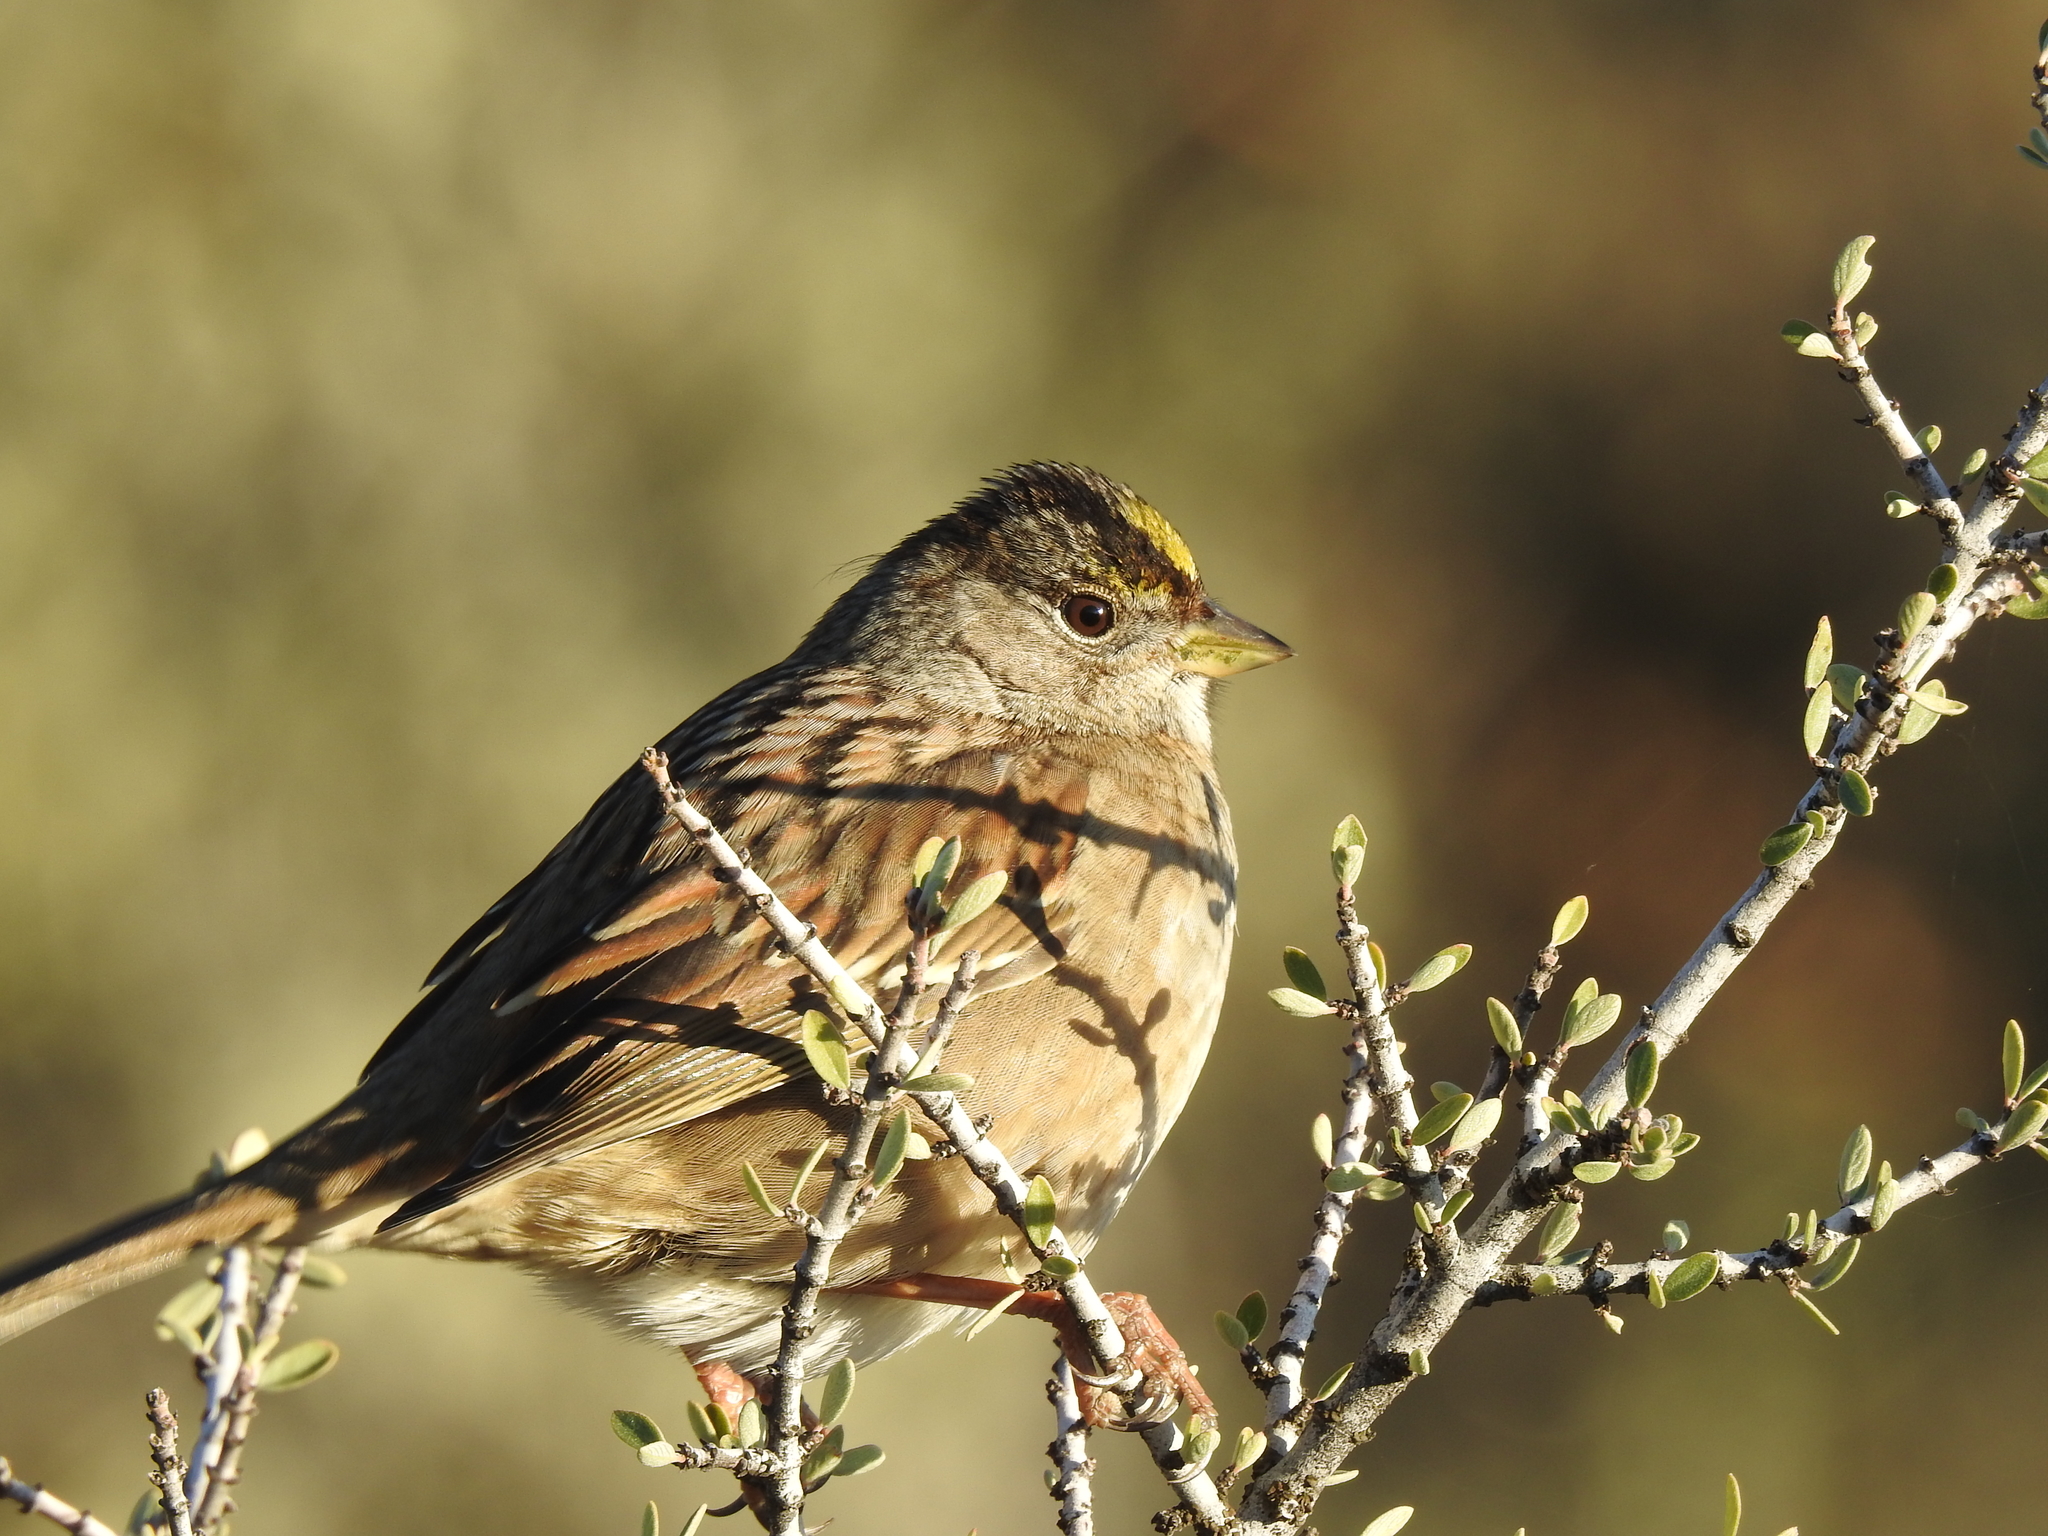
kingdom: Animalia
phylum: Chordata
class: Aves
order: Passeriformes
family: Passerellidae
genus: Zonotrichia
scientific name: Zonotrichia atricapilla
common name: Golden-crowned sparrow
